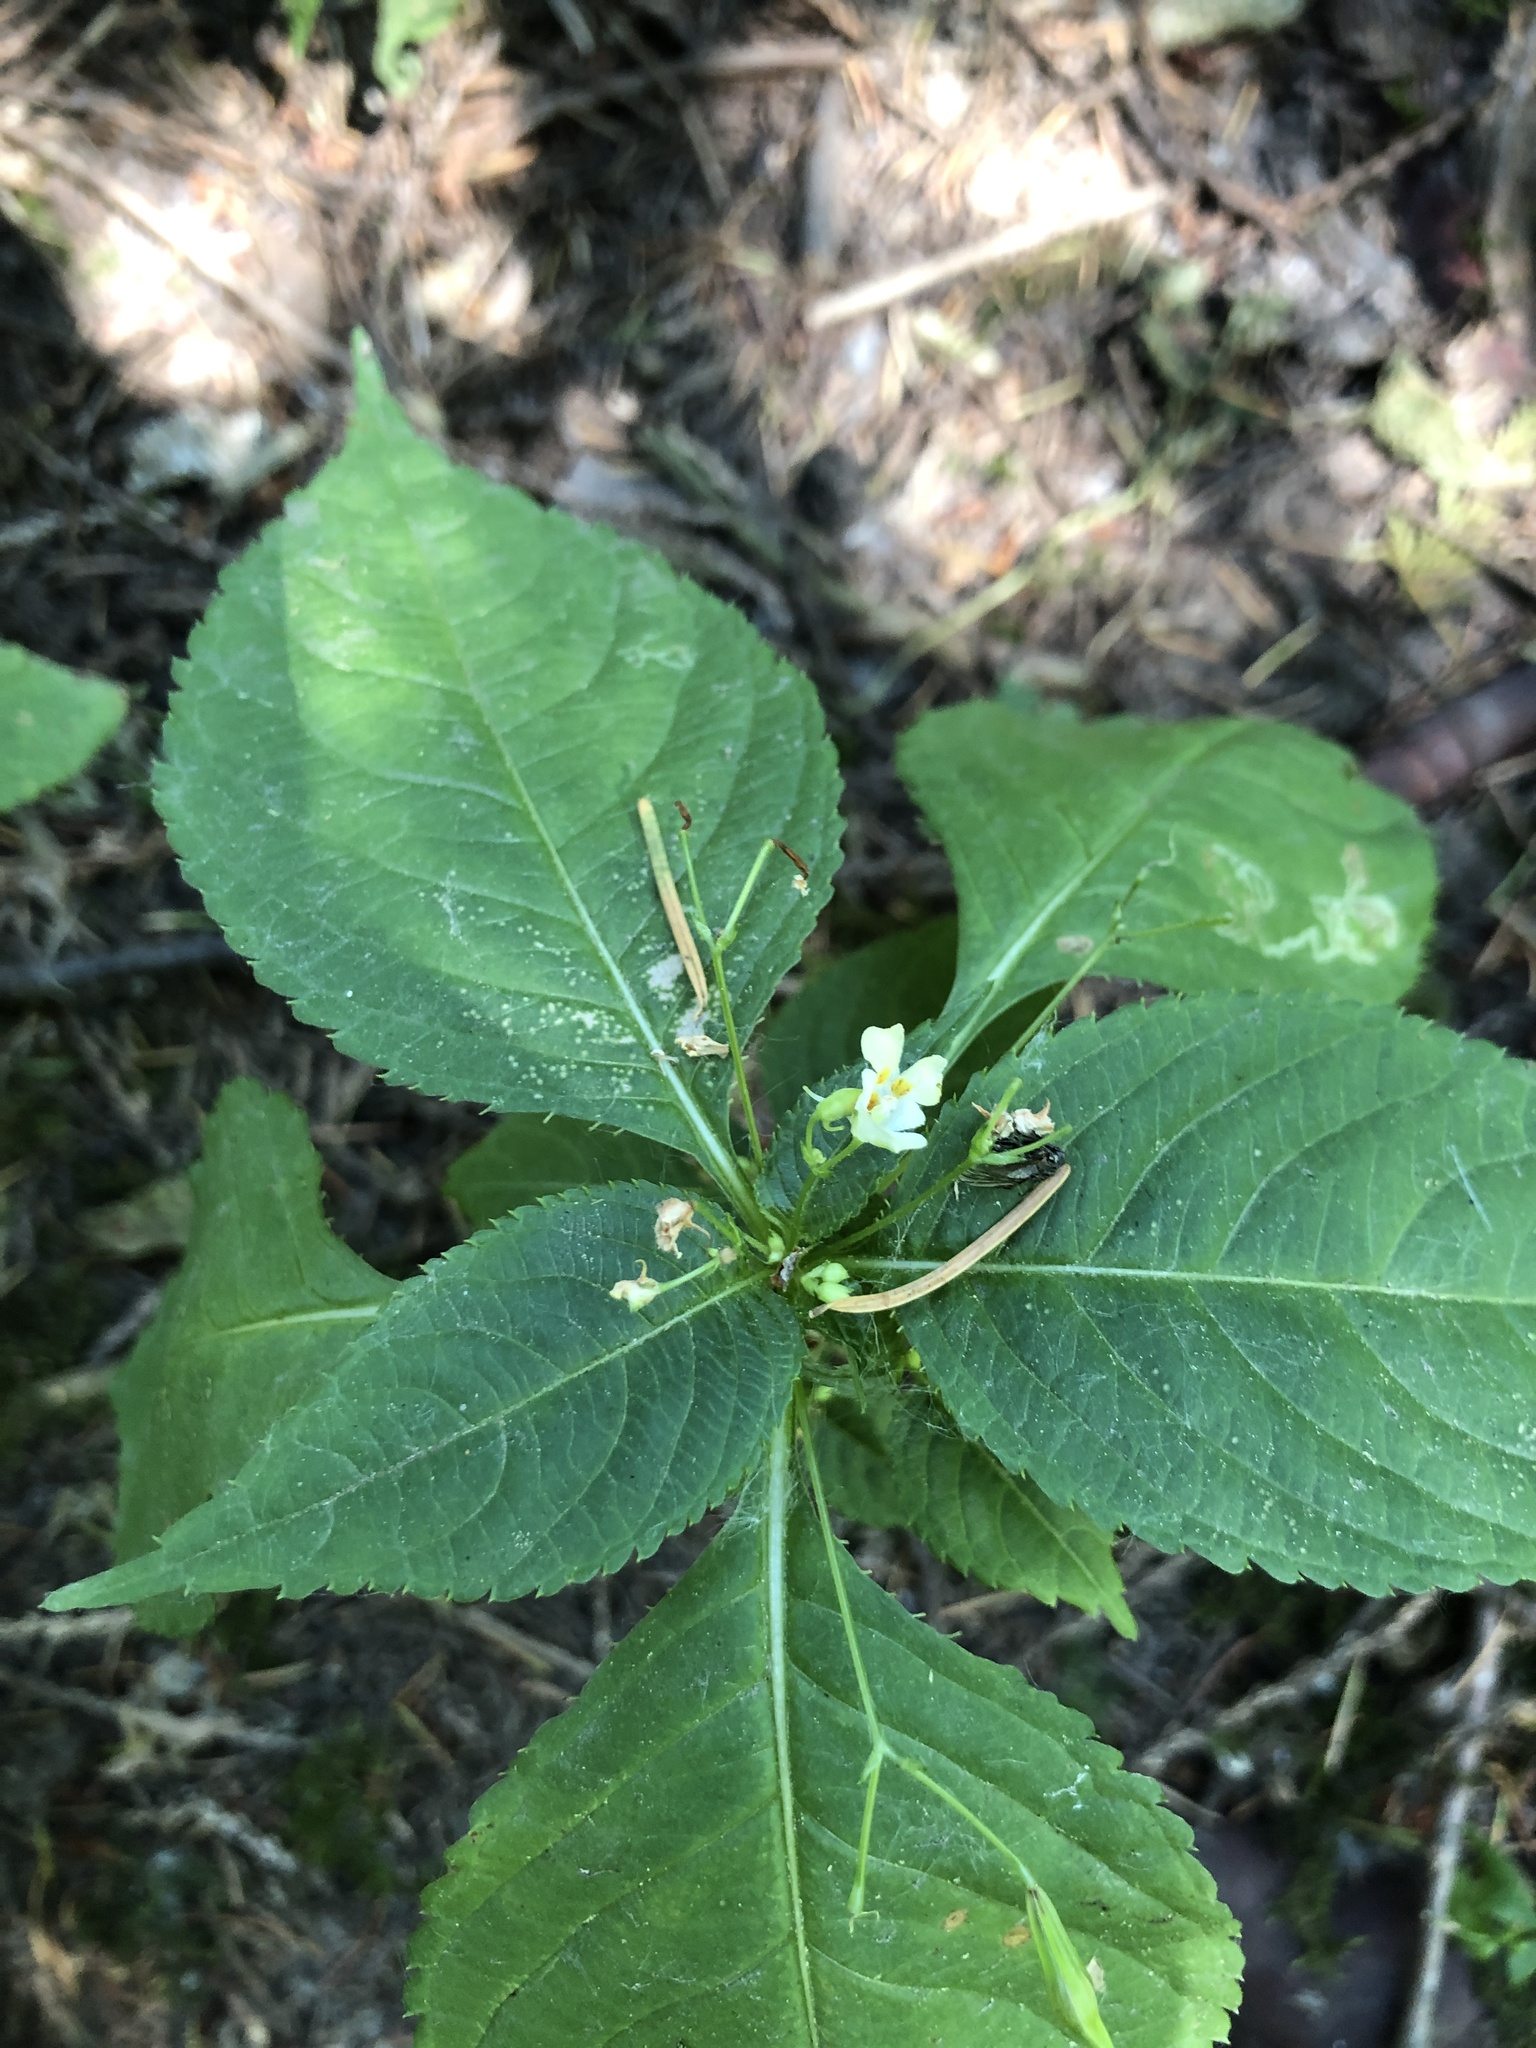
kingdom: Plantae
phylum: Tracheophyta
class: Magnoliopsida
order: Ericales
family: Balsaminaceae
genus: Impatiens
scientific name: Impatiens parviflora
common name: Small balsam
